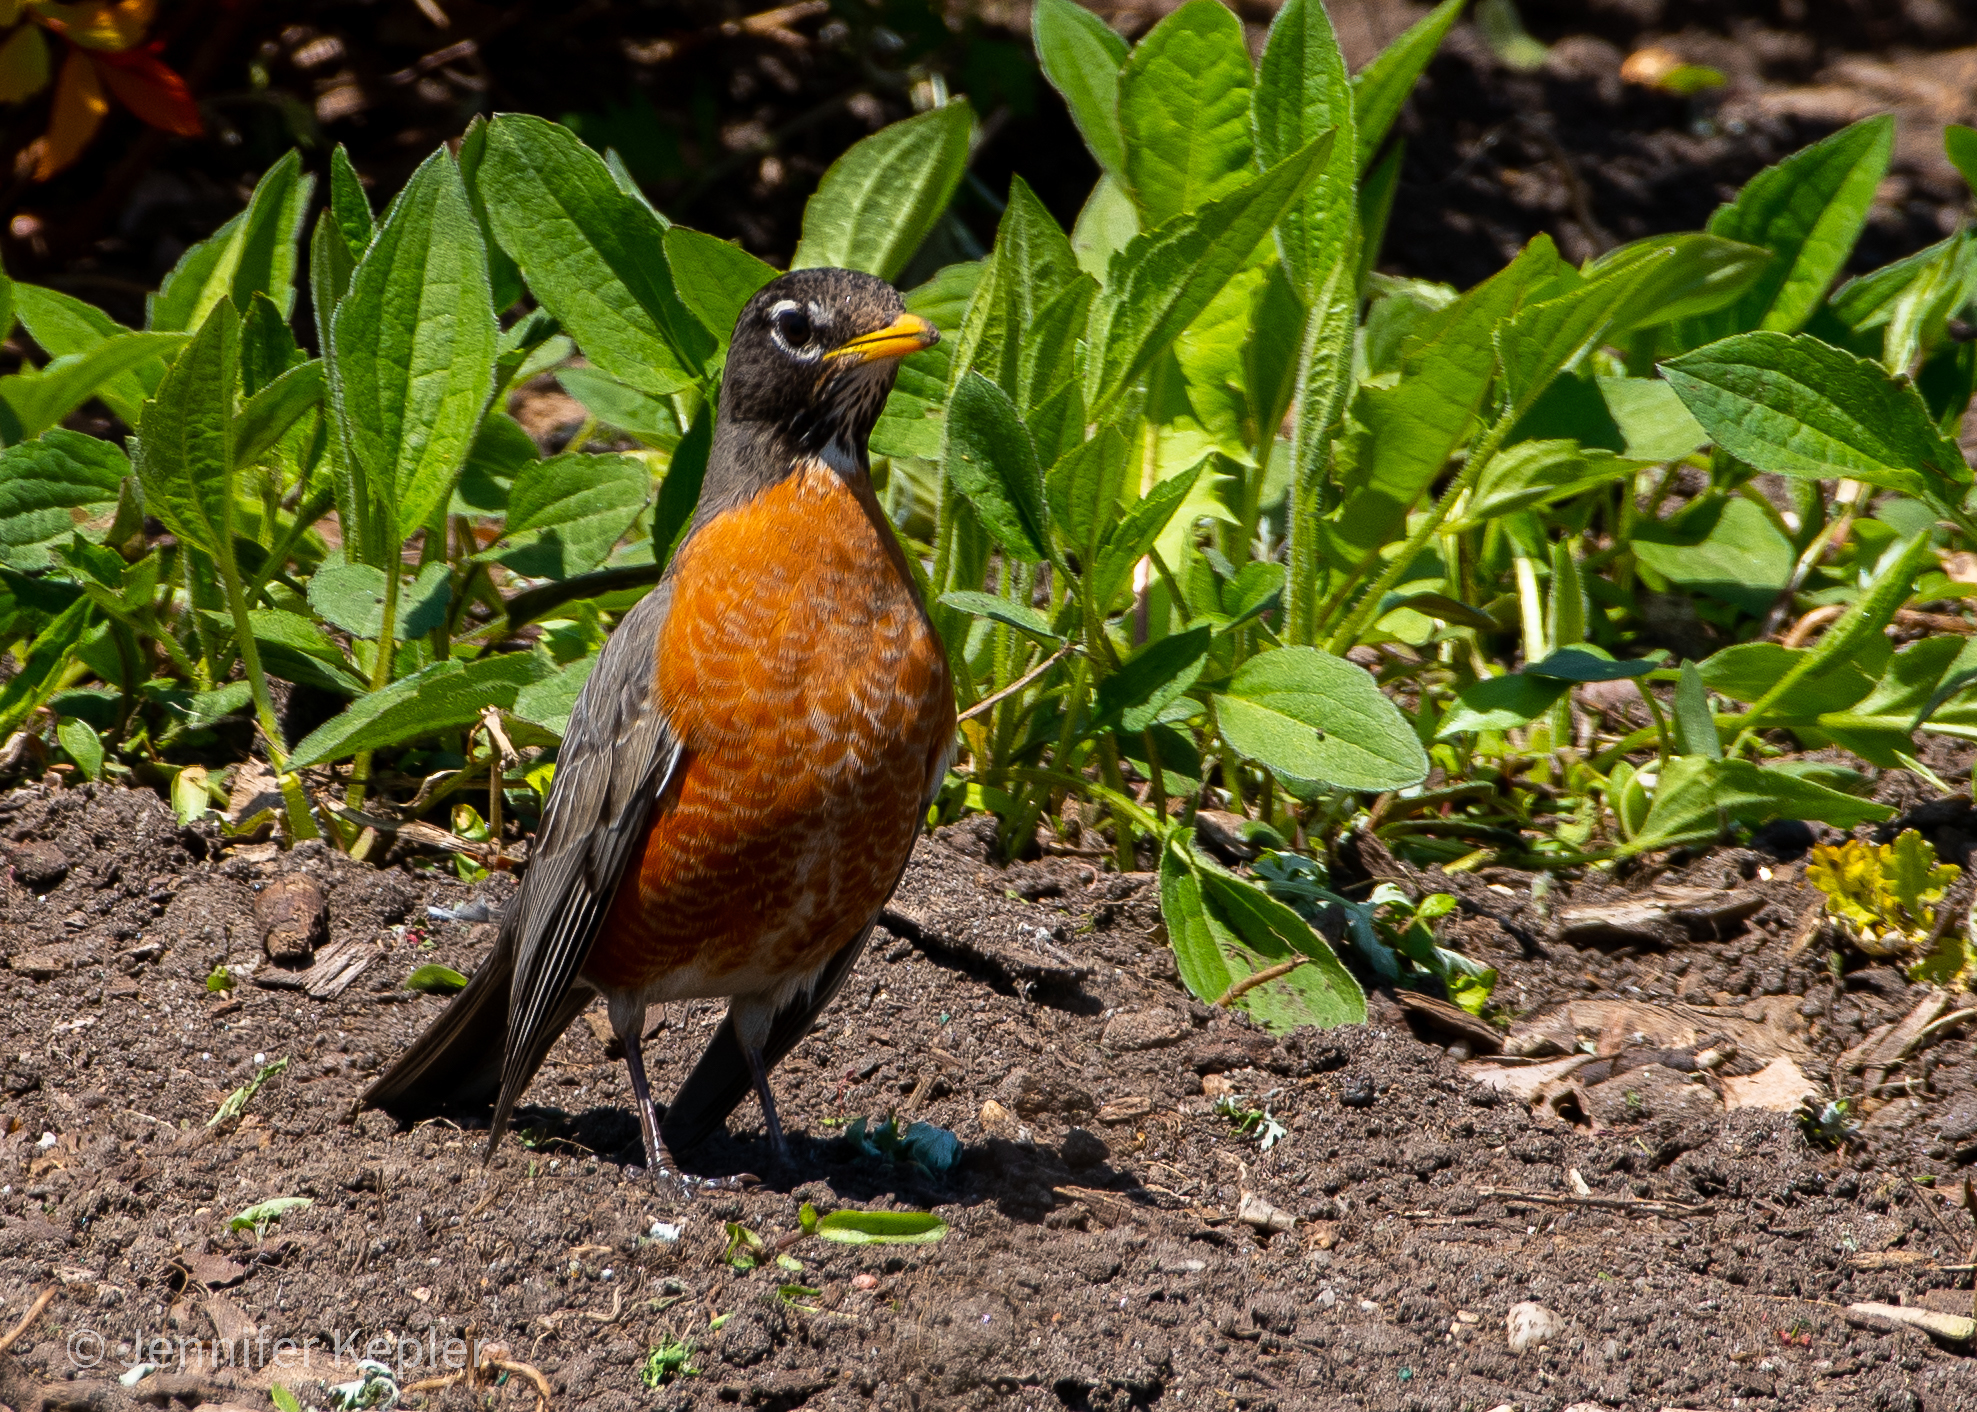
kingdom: Animalia
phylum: Chordata
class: Aves
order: Passeriformes
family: Turdidae
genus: Turdus
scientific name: Turdus migratorius
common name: American robin
